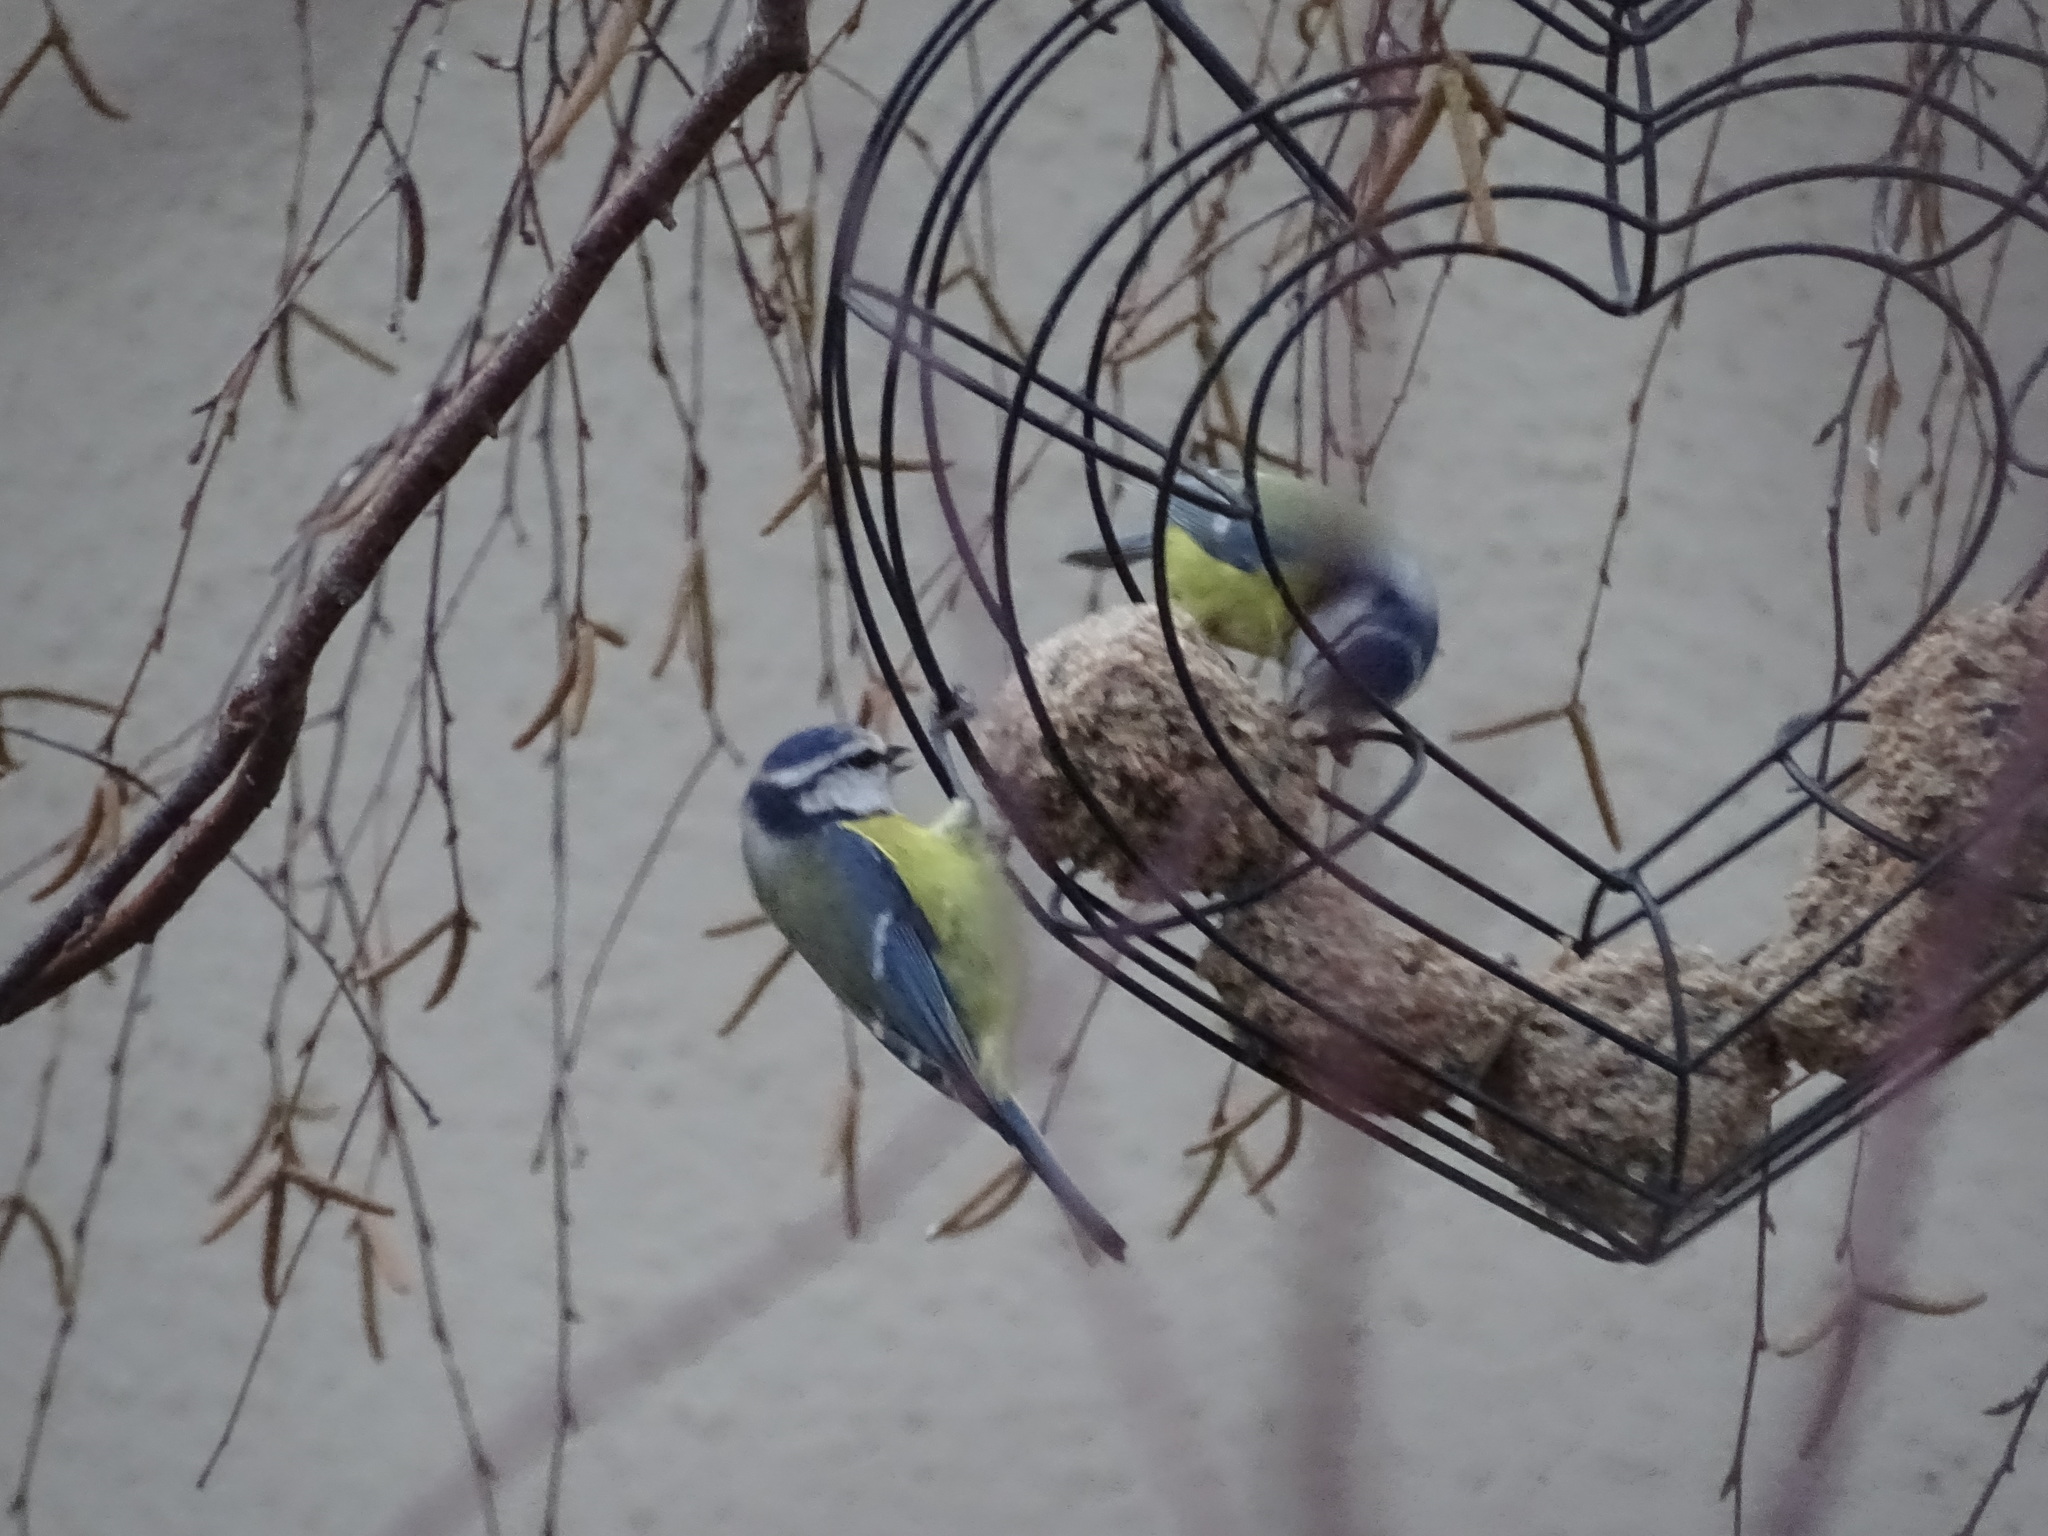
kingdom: Animalia
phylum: Chordata
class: Aves
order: Passeriformes
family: Paridae
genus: Cyanistes
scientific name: Cyanistes caeruleus
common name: Eurasian blue tit
